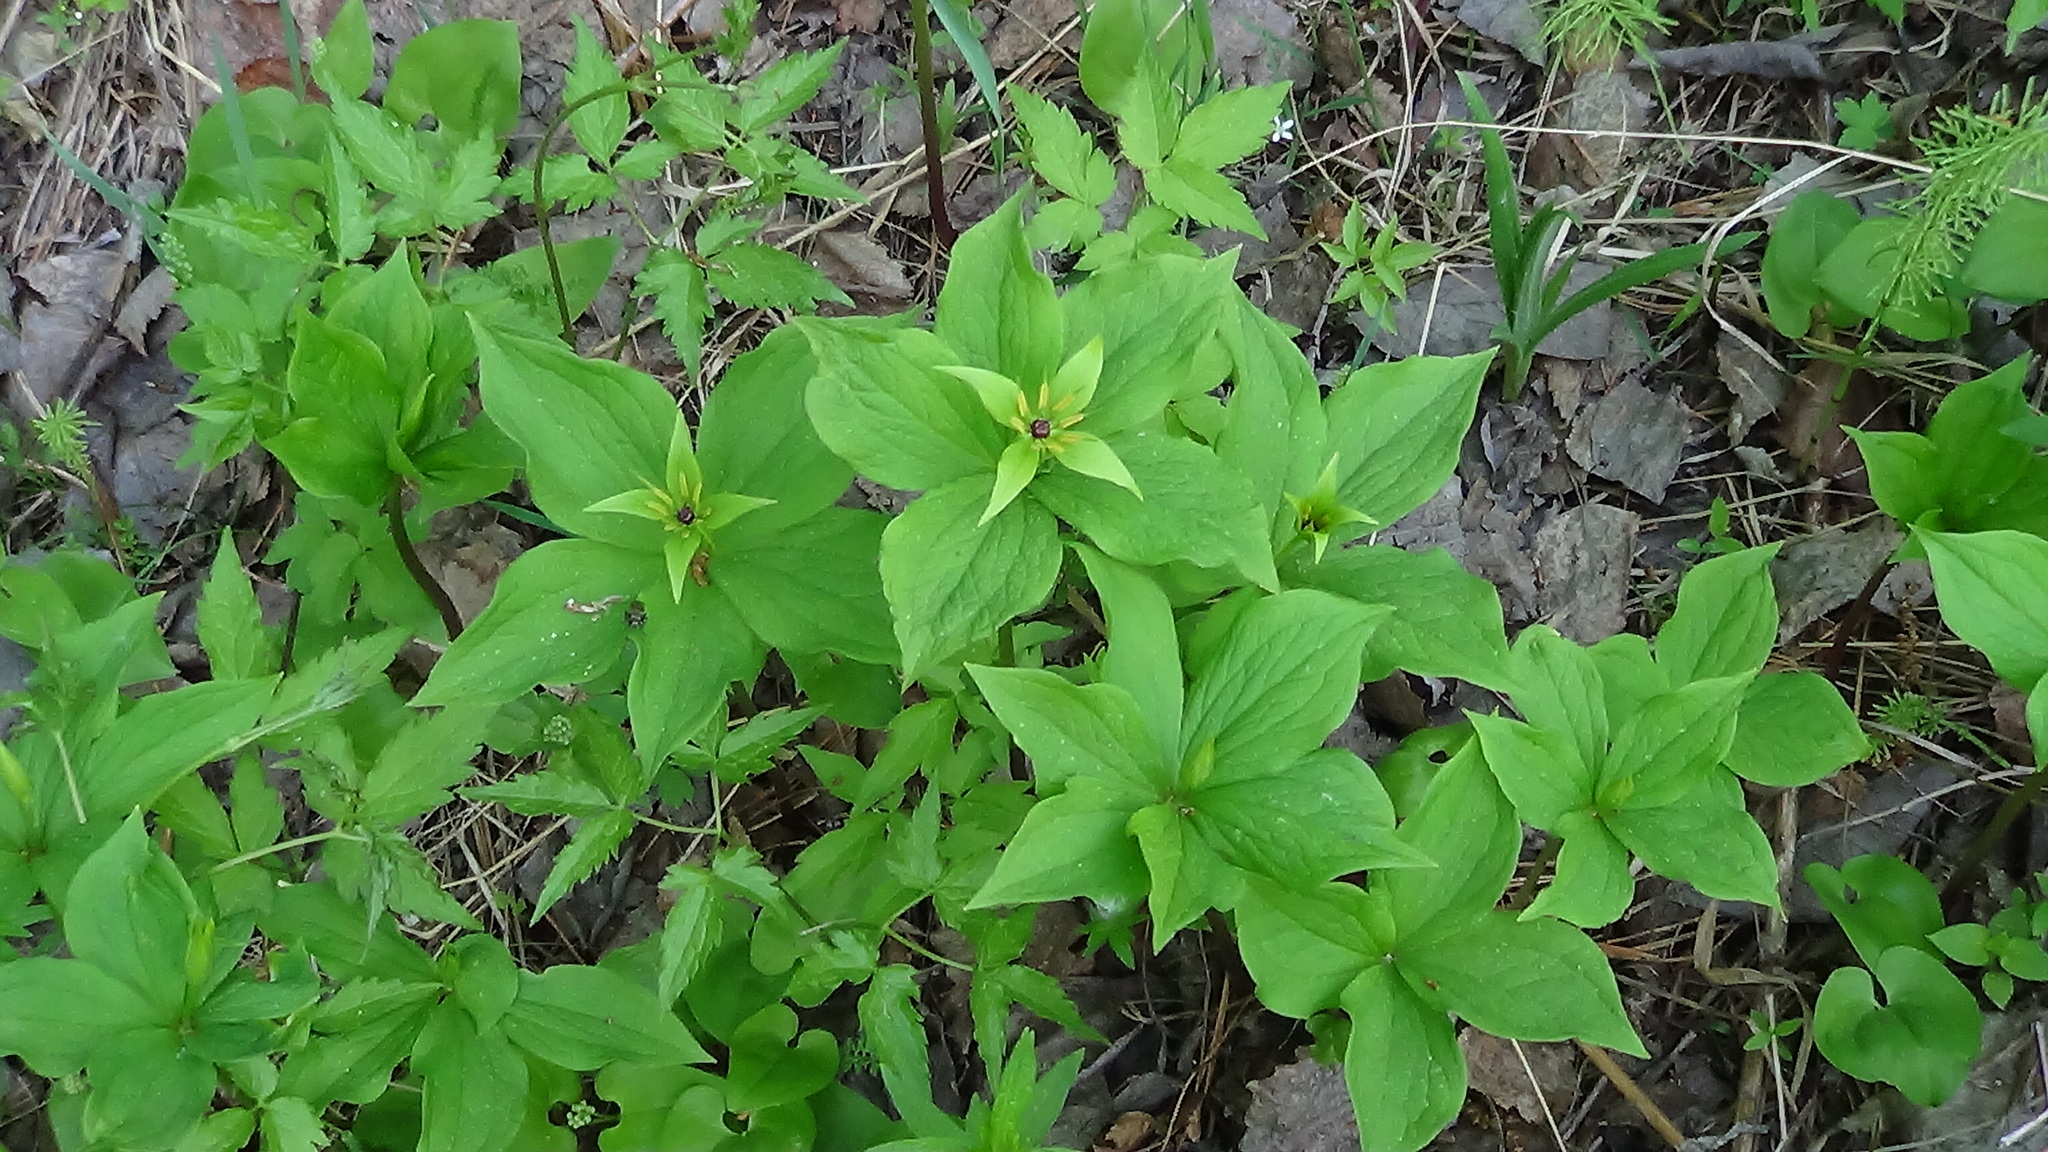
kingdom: Plantae
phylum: Tracheophyta
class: Liliopsida
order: Liliales
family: Melanthiaceae
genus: Paris
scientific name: Paris quadrifolia
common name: Herb-paris
